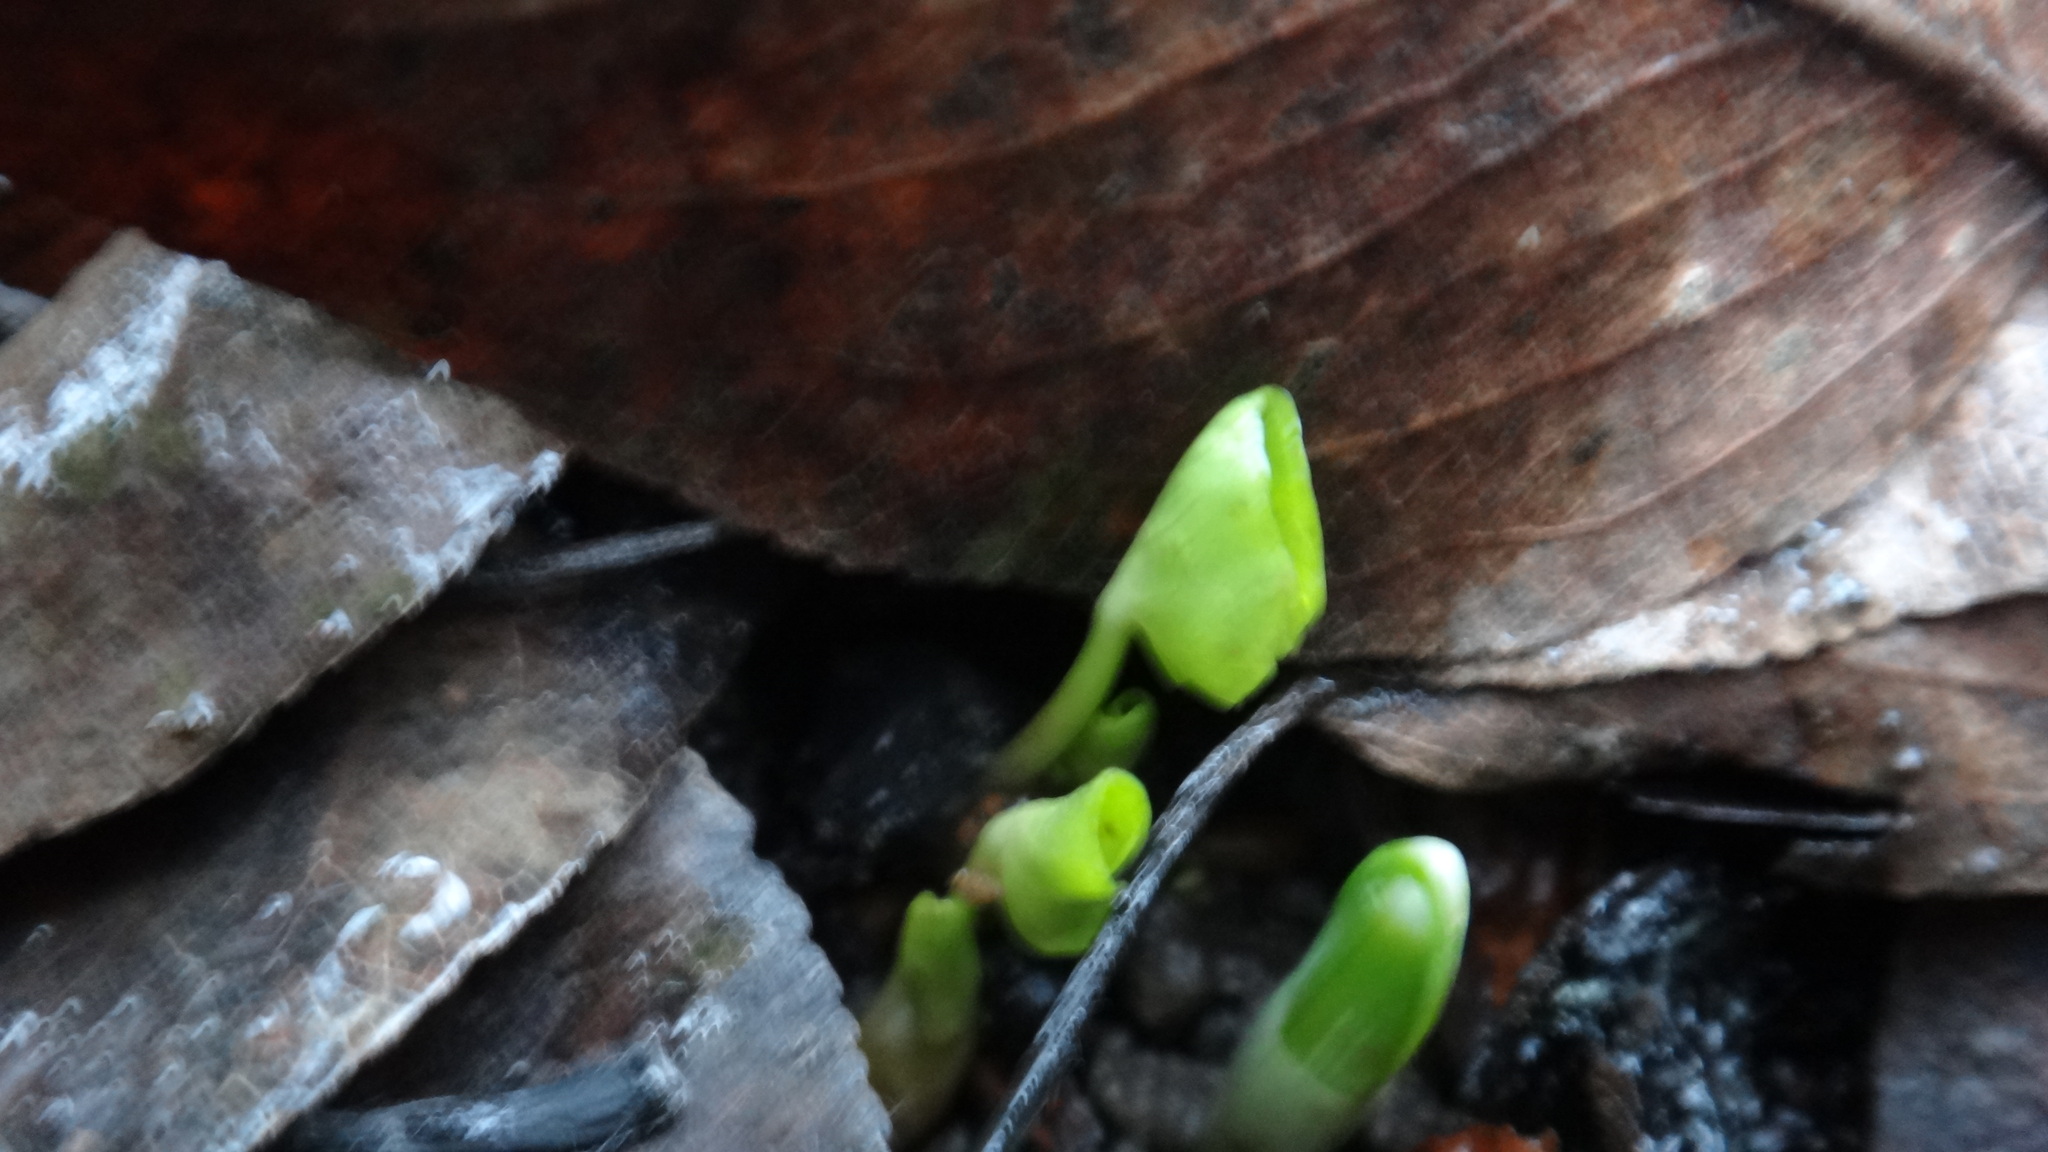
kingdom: Plantae
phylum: Tracheophyta
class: Magnoliopsida
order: Ranunculales
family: Ranunculaceae
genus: Ficaria
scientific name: Ficaria verna
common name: Lesser celandine
